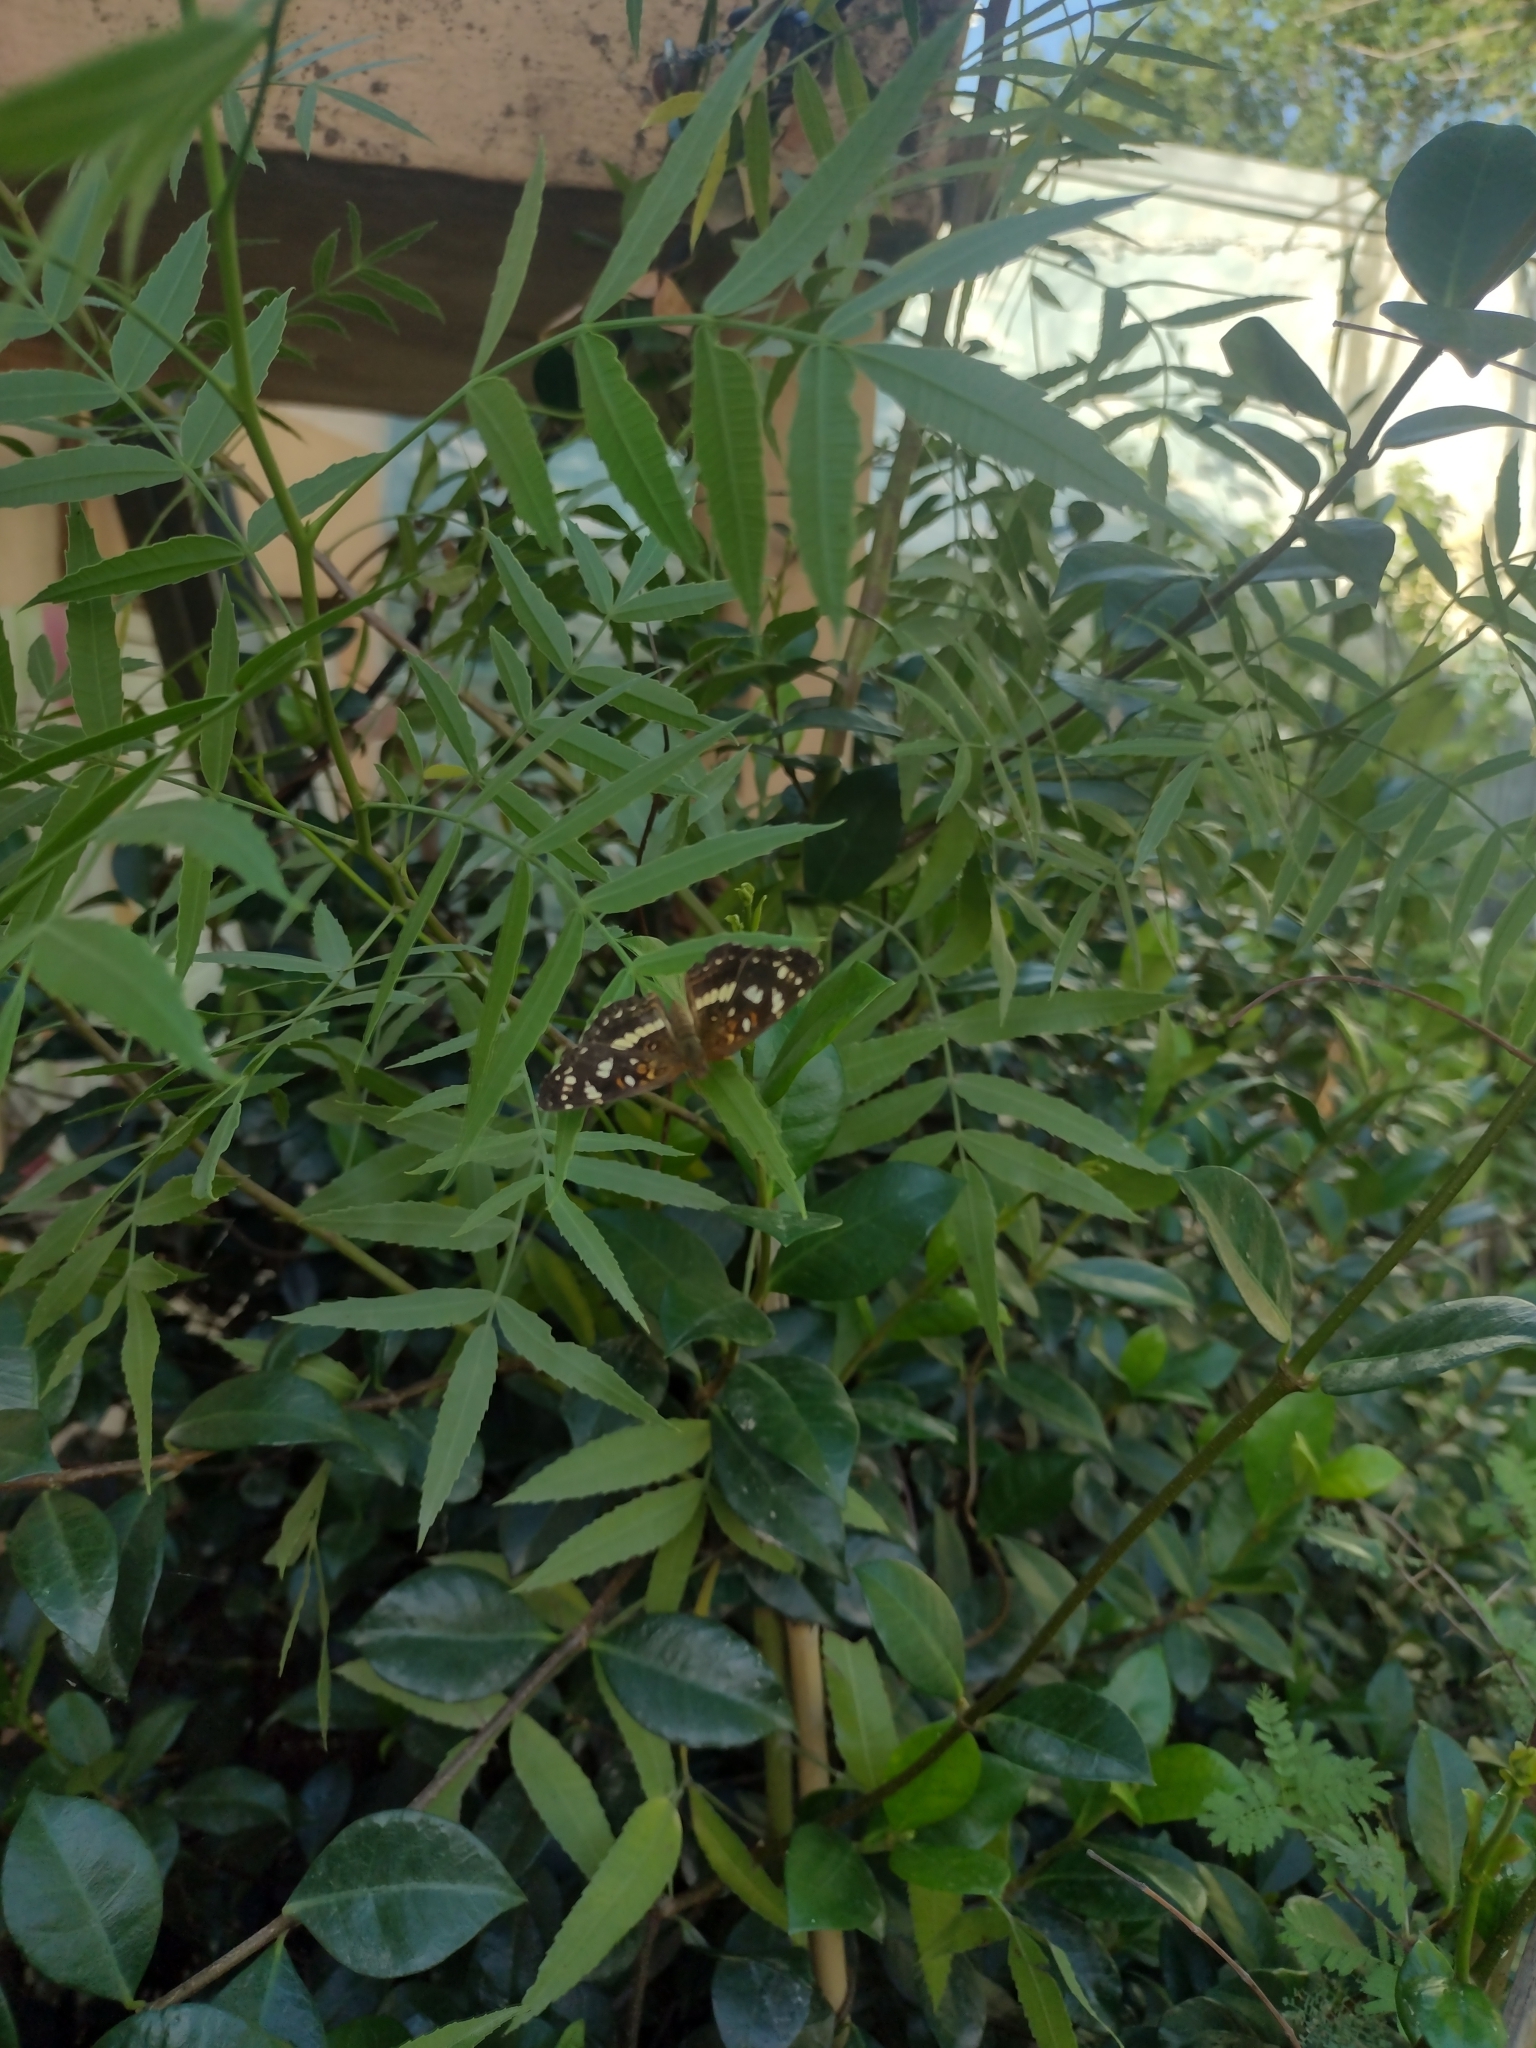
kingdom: Animalia
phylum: Arthropoda
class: Insecta
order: Lepidoptera
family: Nymphalidae
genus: Ortilia
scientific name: Ortilia ithra
